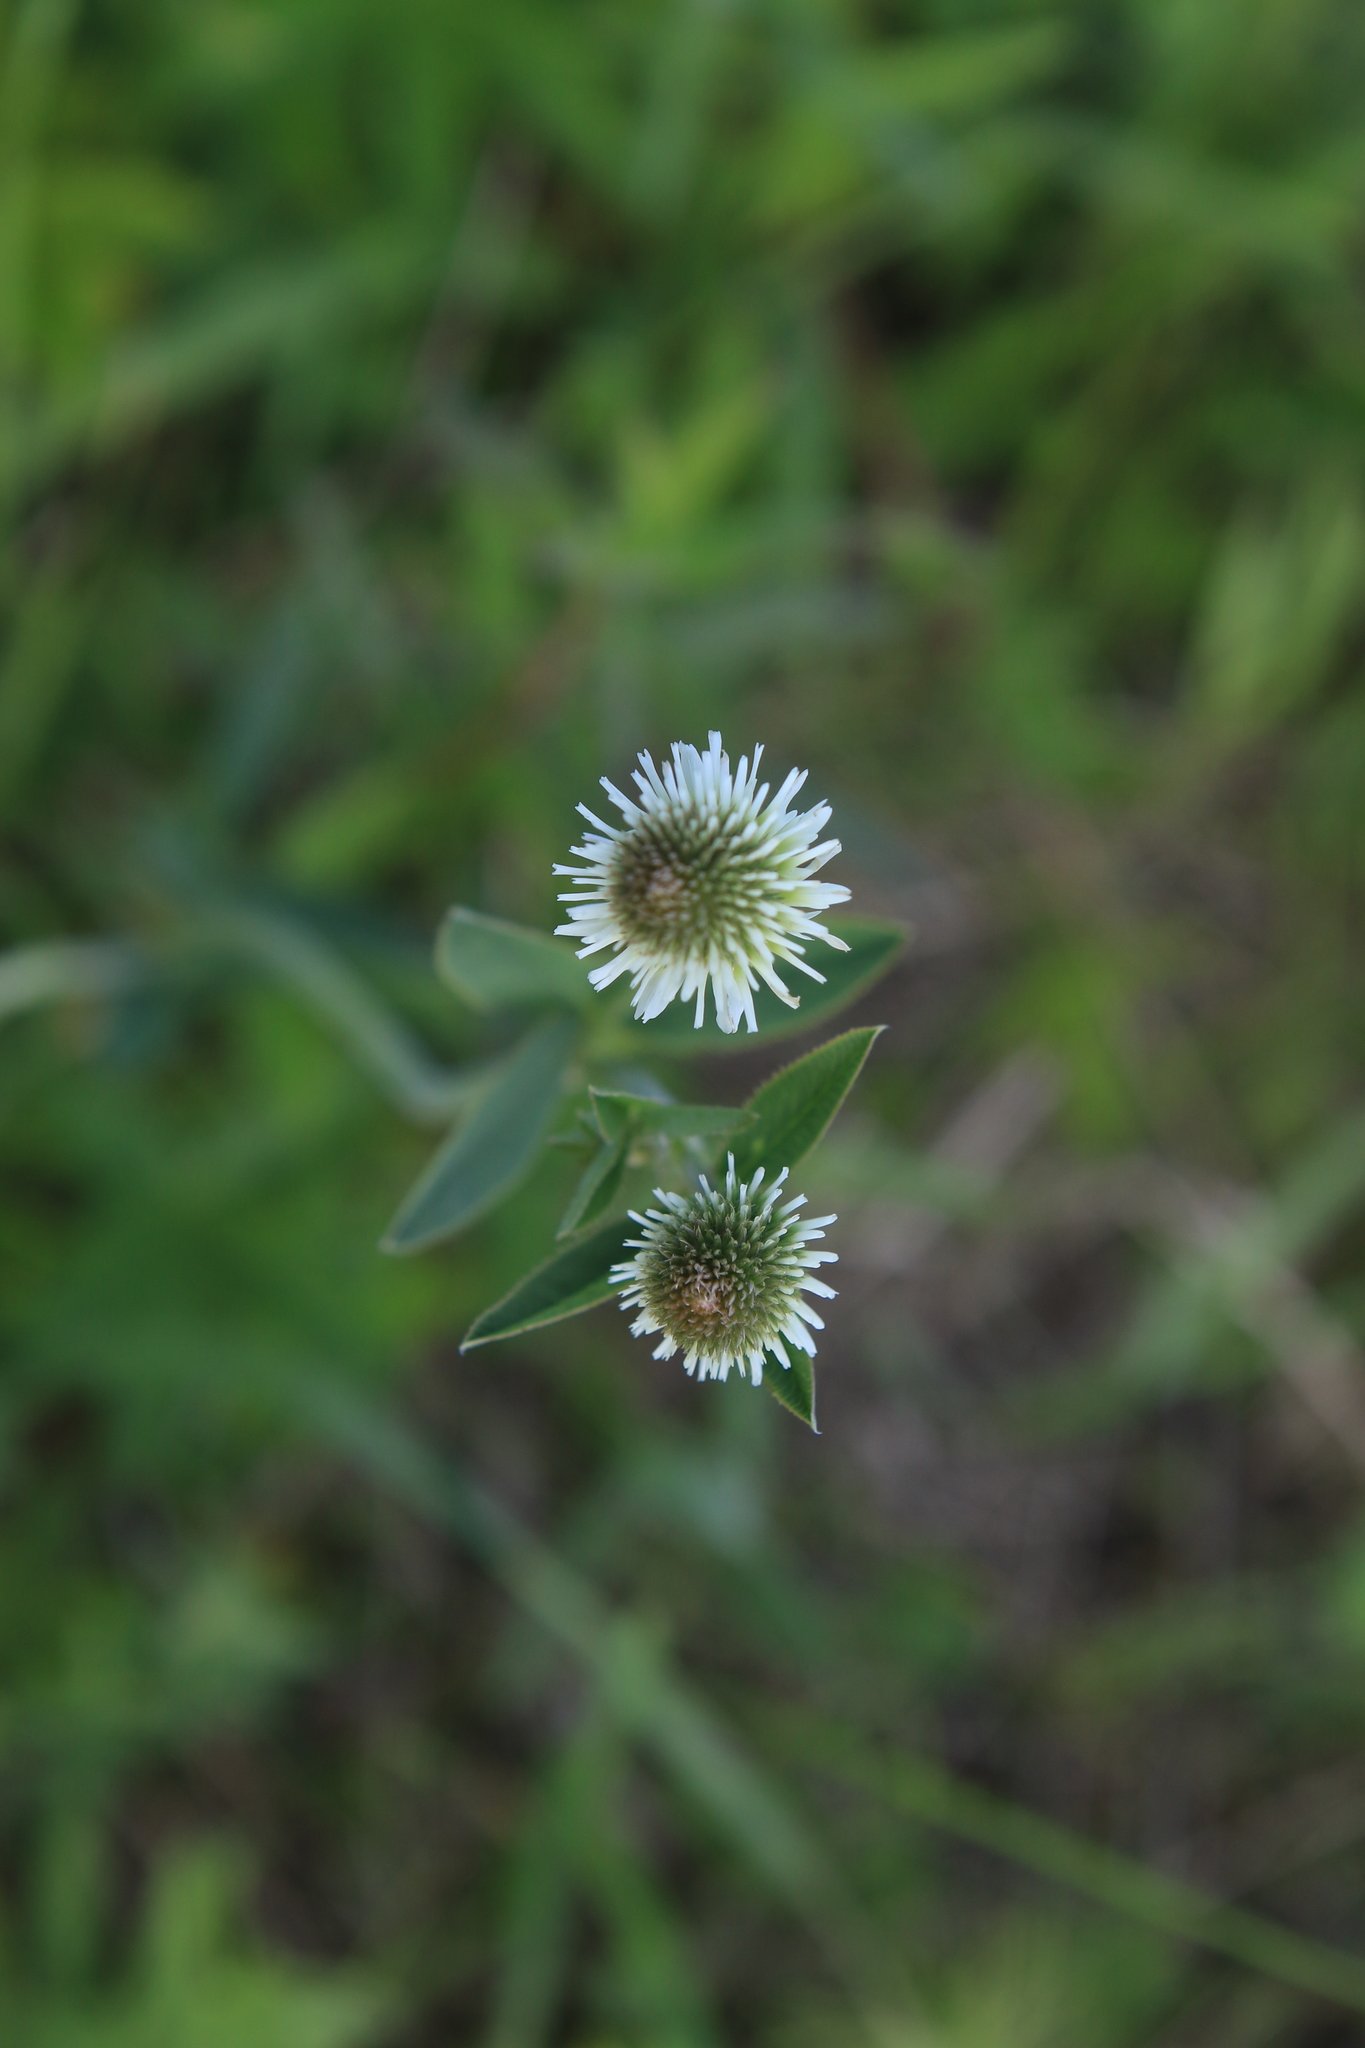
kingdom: Plantae
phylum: Tracheophyta
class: Magnoliopsida
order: Fabales
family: Fabaceae
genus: Trifolium
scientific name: Trifolium montanum
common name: Mountain clover
